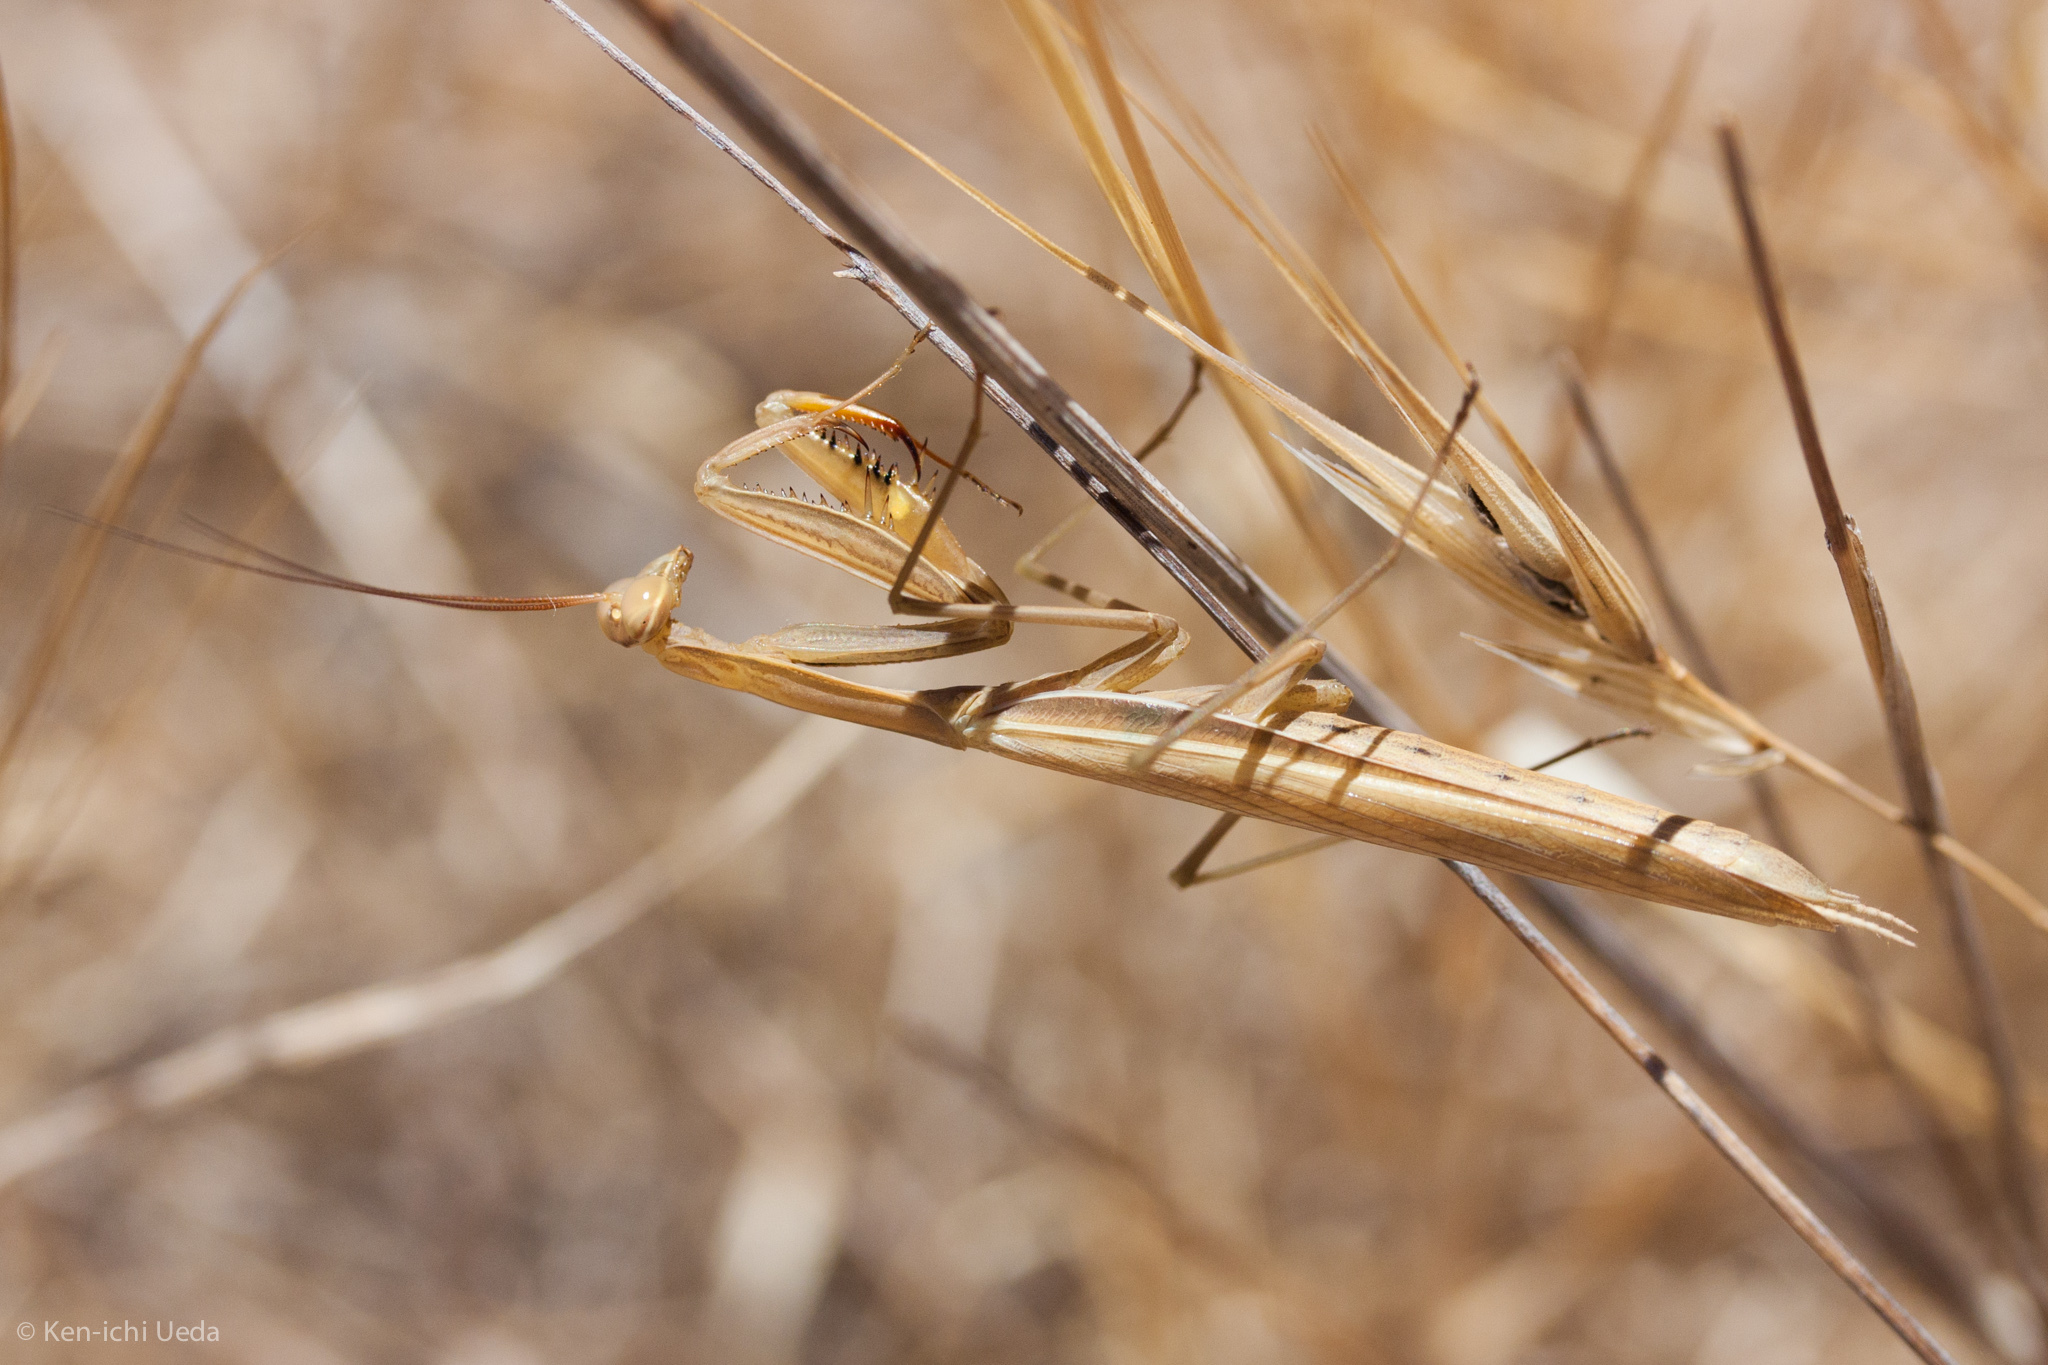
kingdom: Animalia
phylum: Arthropoda
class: Insecta
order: Mantodea
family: Mantidae
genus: Mantis
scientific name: Mantis religiosa
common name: Praying mantis
